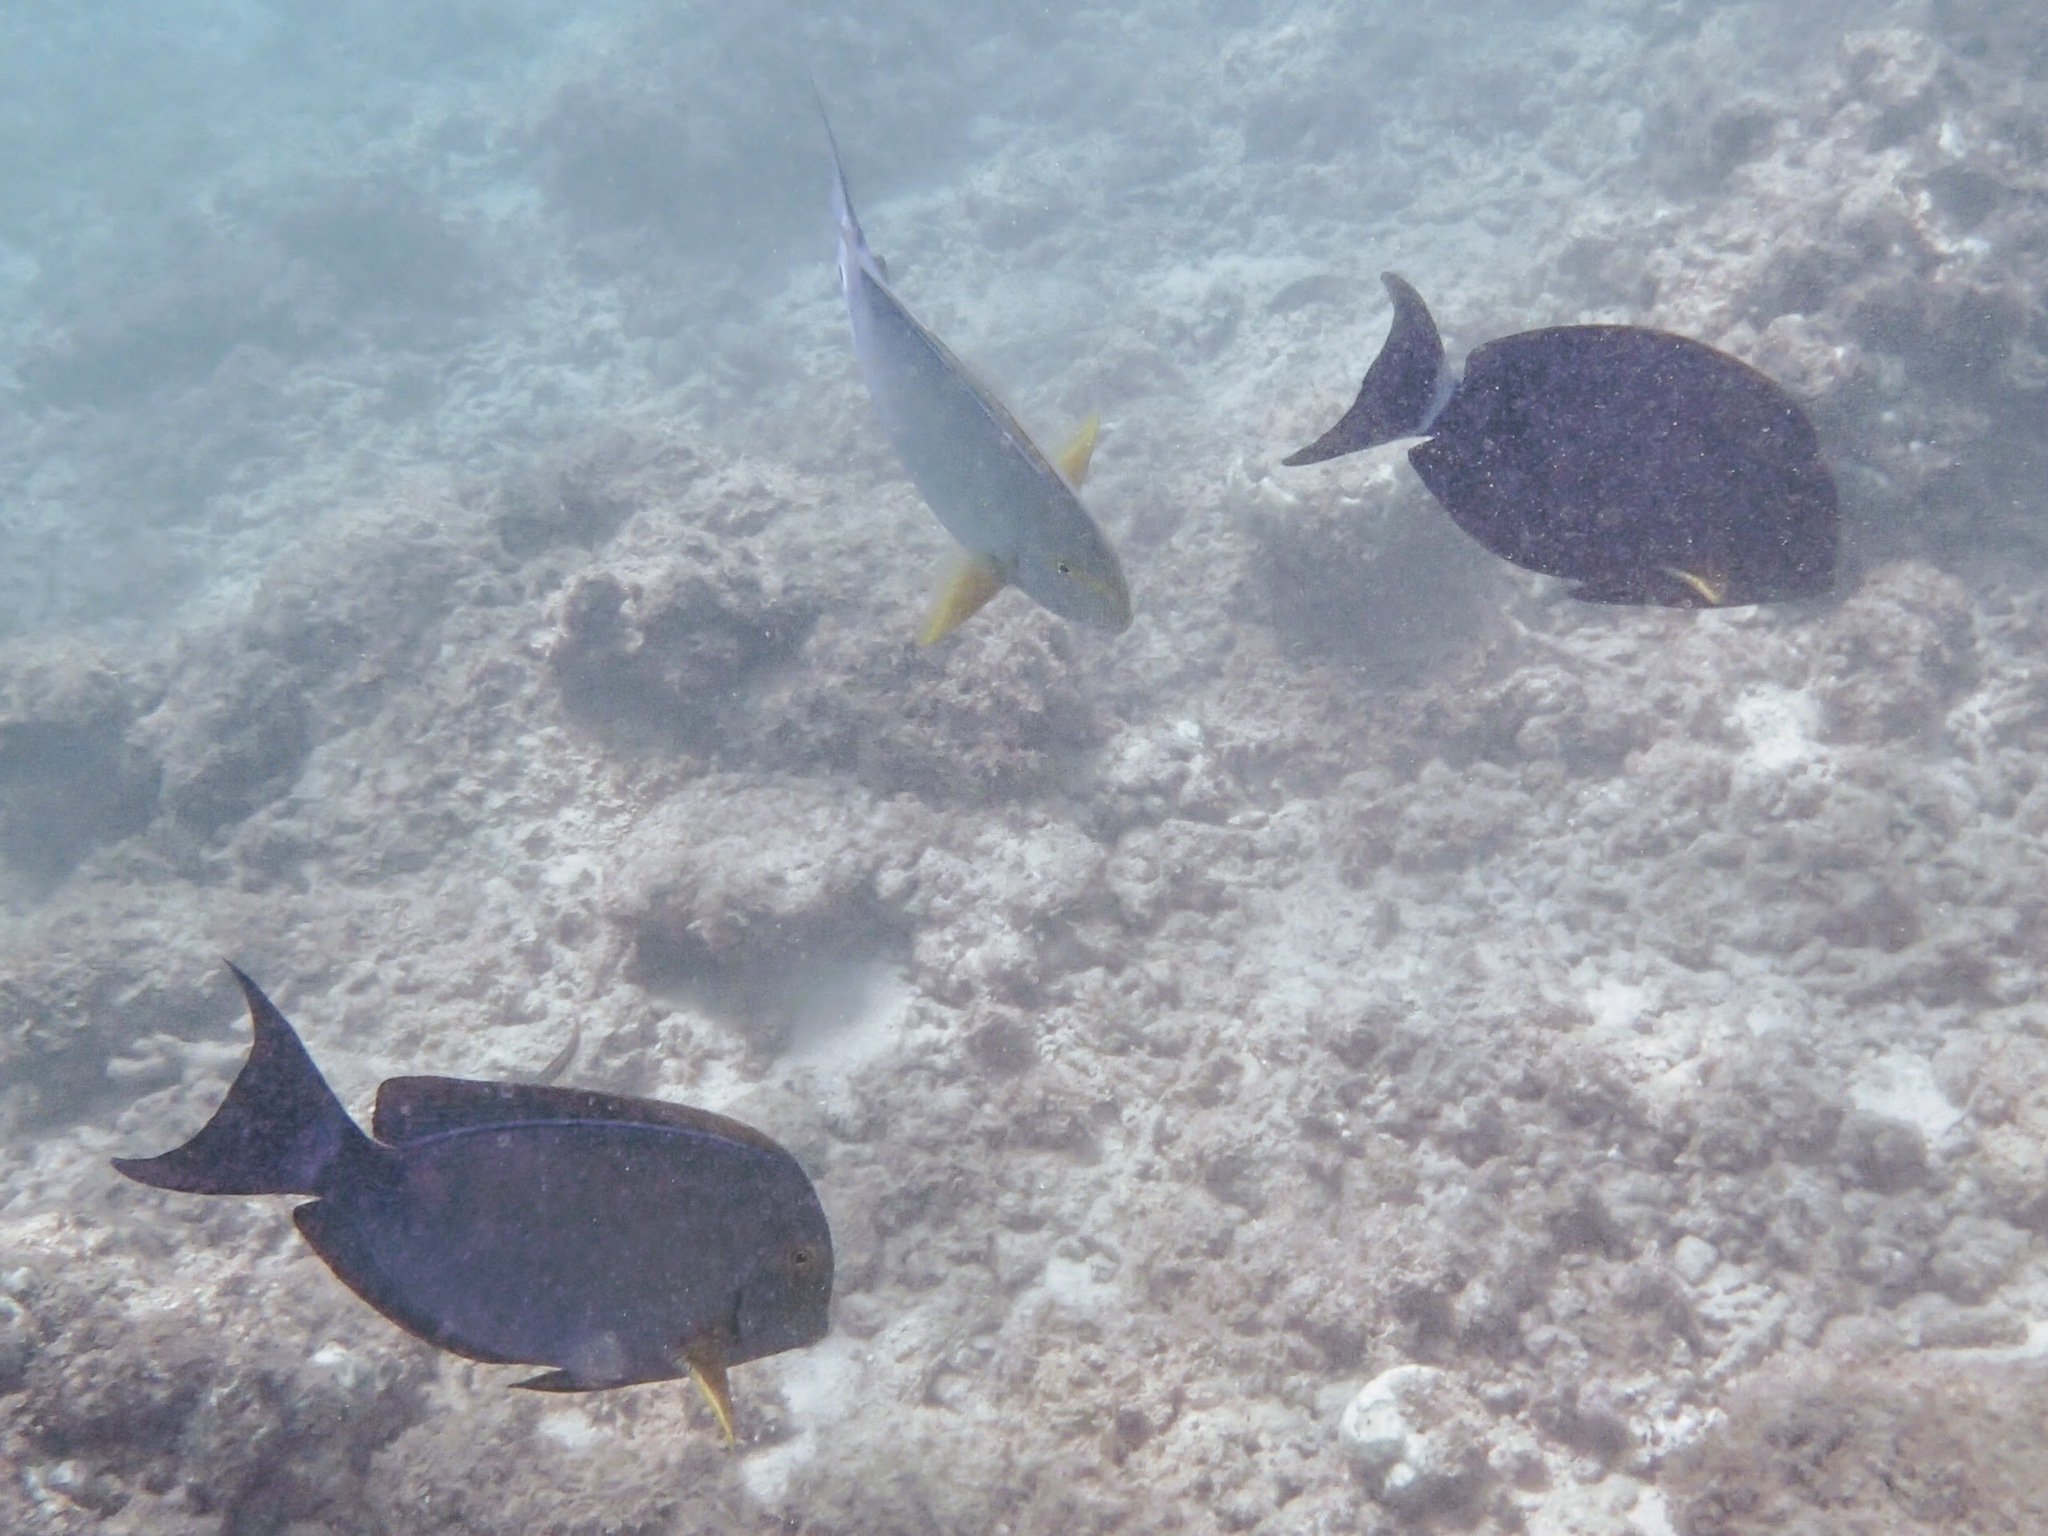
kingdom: Animalia
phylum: Chordata
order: Perciformes
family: Acanthuridae
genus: Acanthurus
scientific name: Acanthurus xanthopterus
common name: Cuvier's surgeonfish
